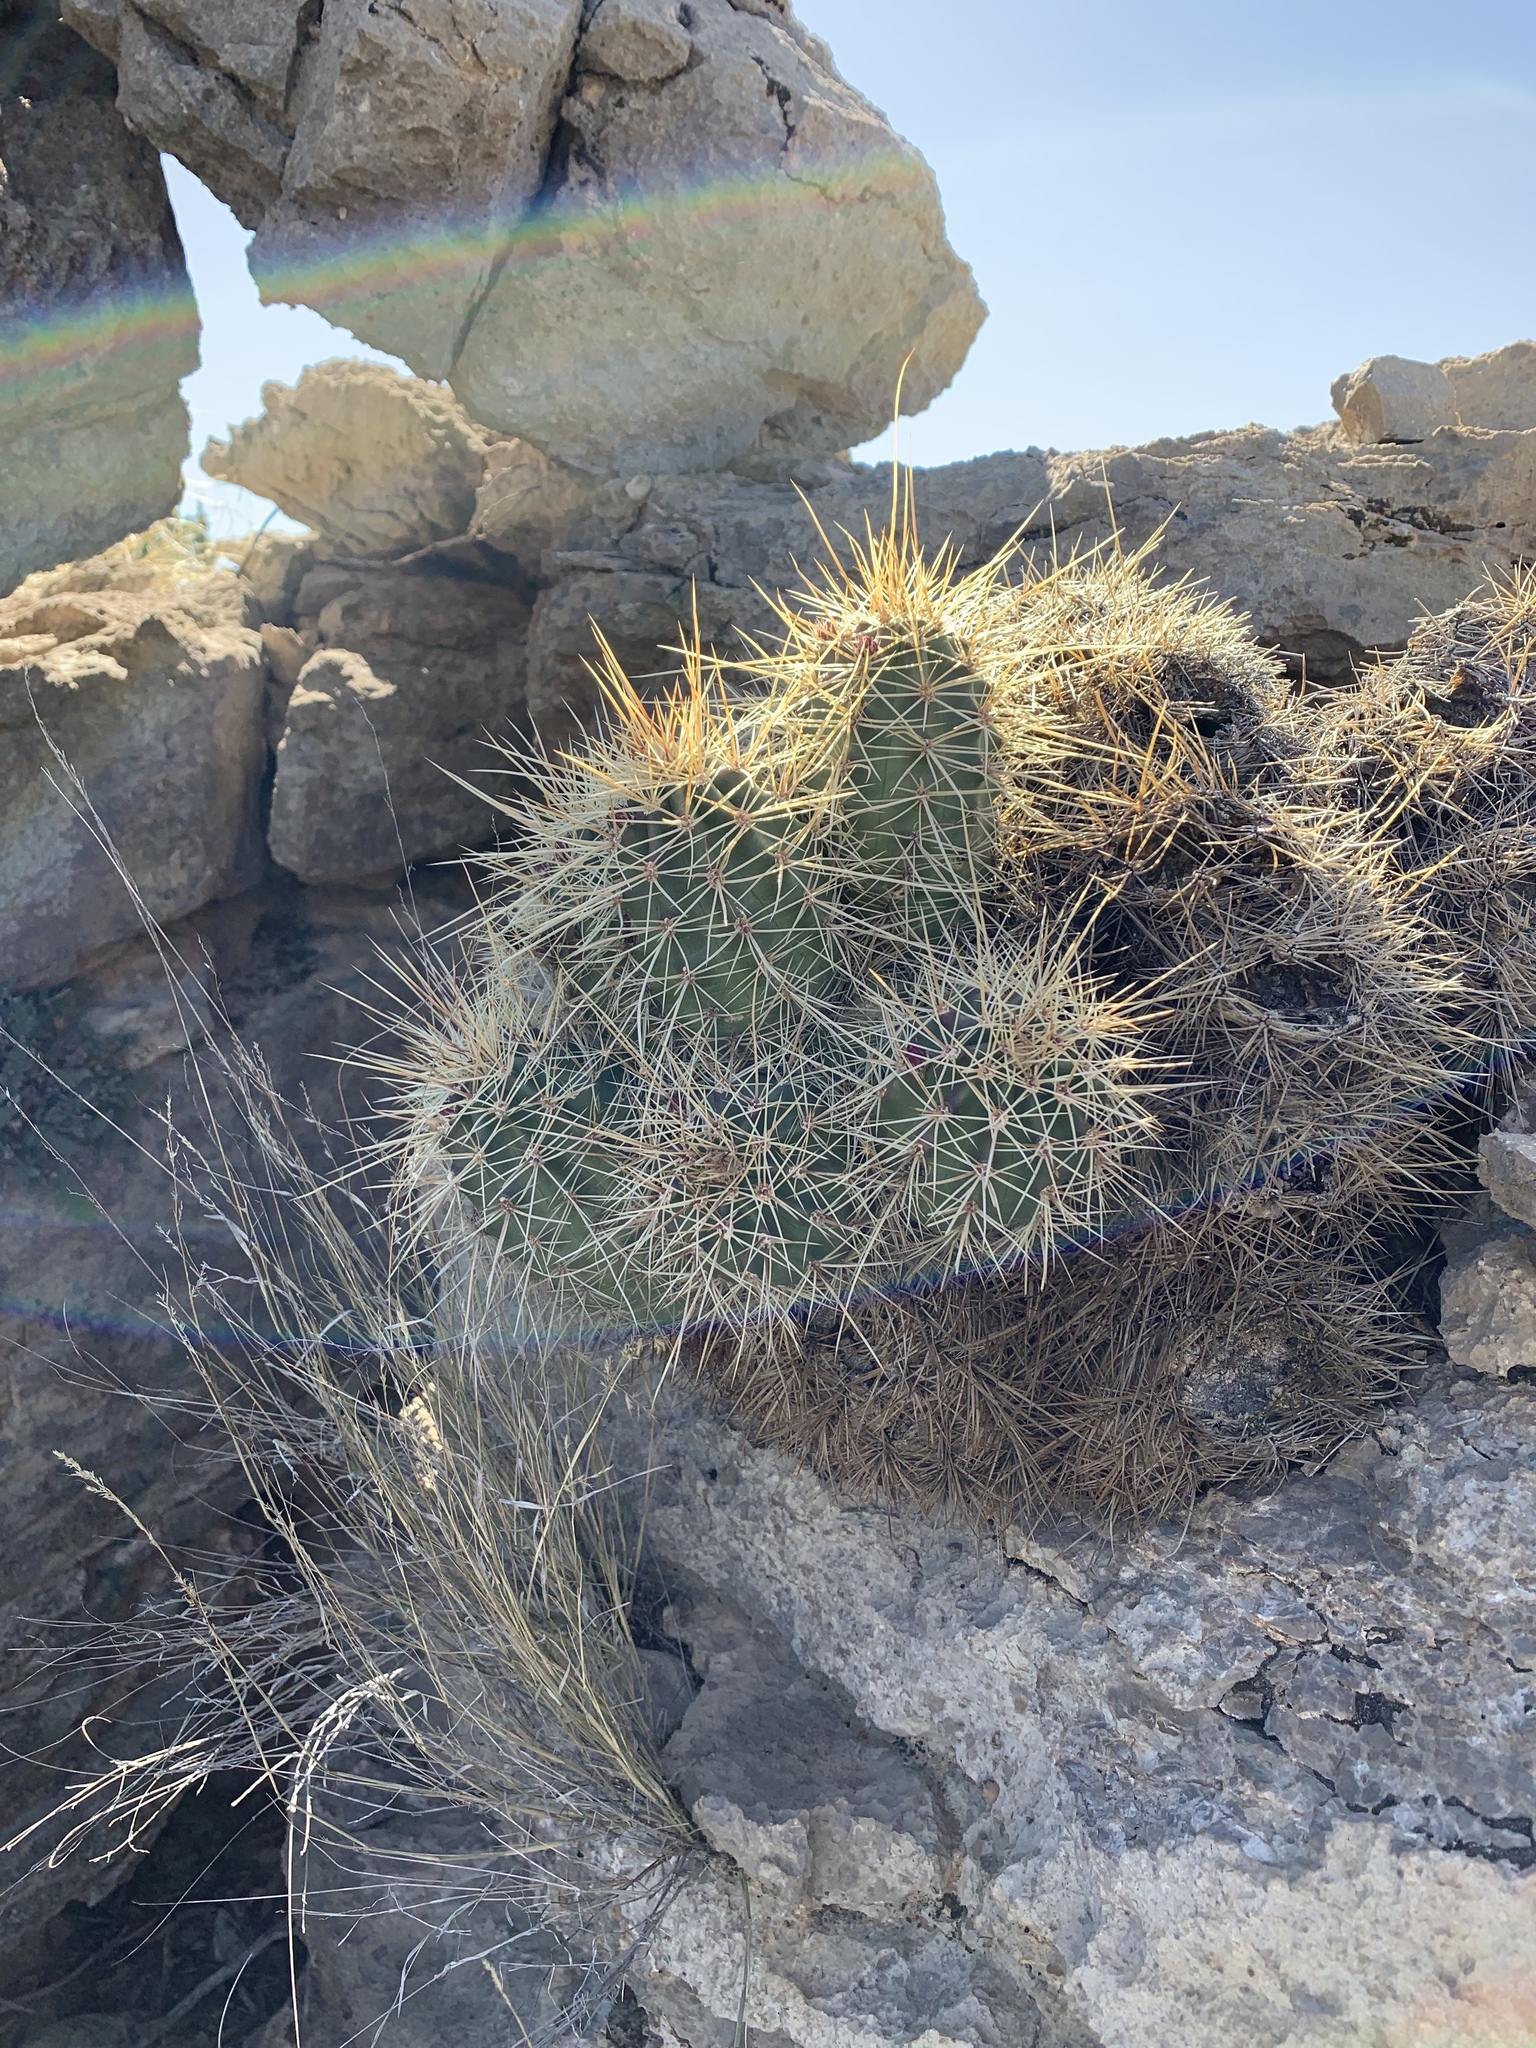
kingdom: Plantae
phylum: Tracheophyta
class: Magnoliopsida
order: Caryophyllales
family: Cactaceae
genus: Echinocereus
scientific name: Echinocereus coccineus
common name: Scarlet hedgehog cactus
